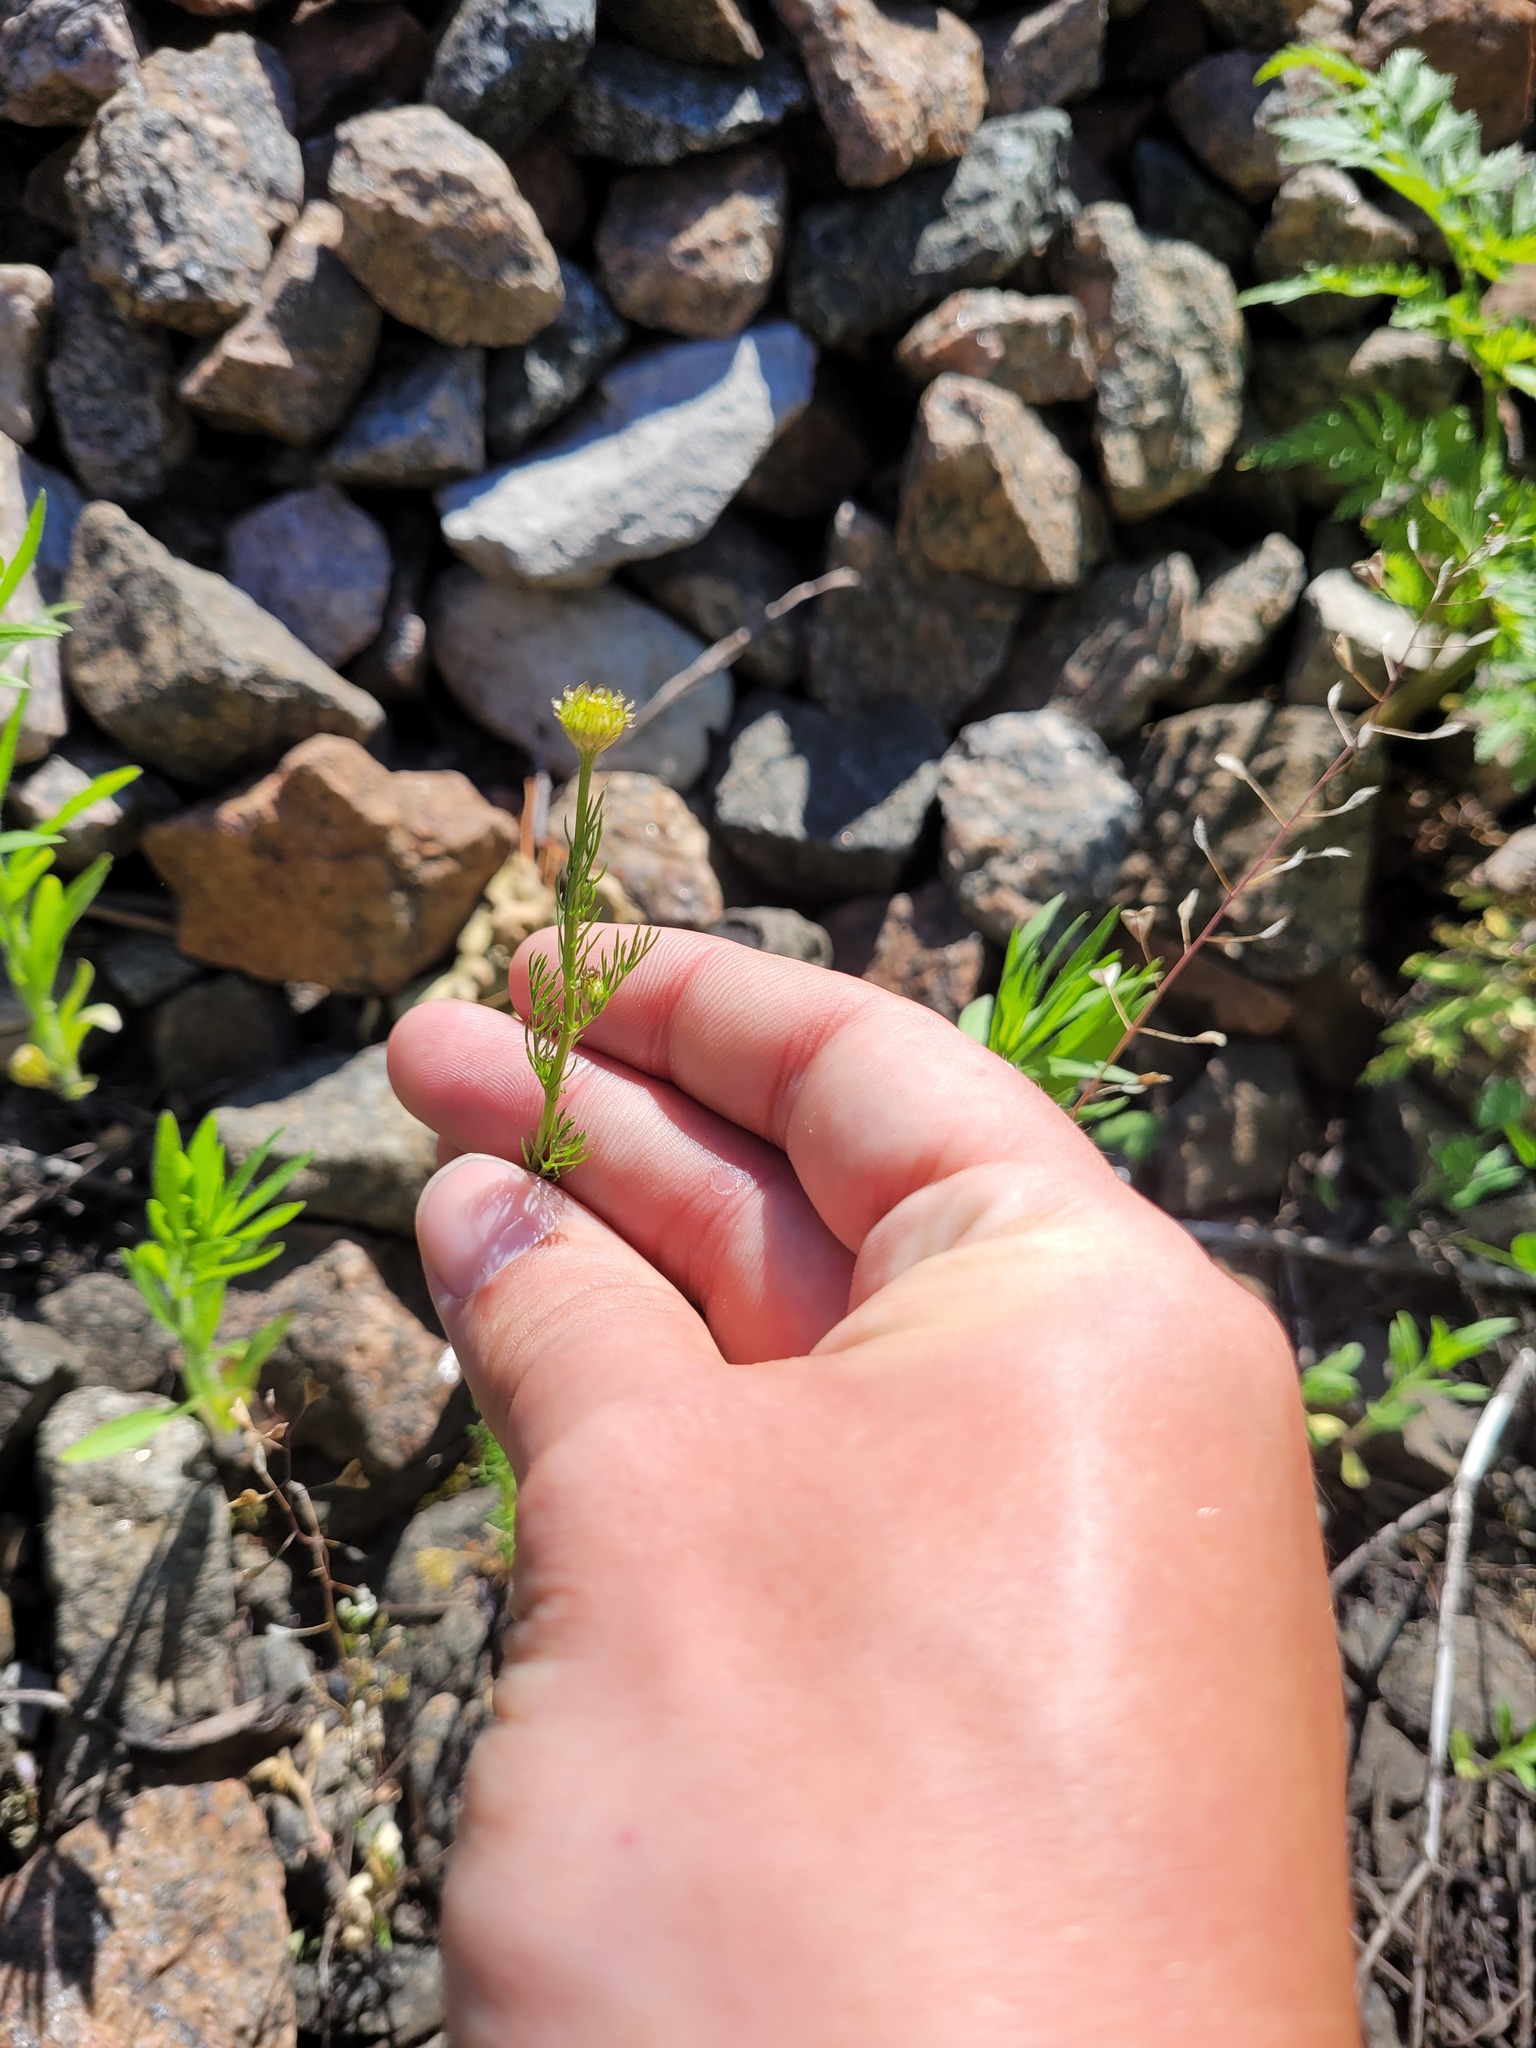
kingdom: Plantae
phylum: Tracheophyta
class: Magnoliopsida
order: Asterales
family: Asteraceae
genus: Tripleurospermum
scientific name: Tripleurospermum inodorum
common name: Scentless mayweed
